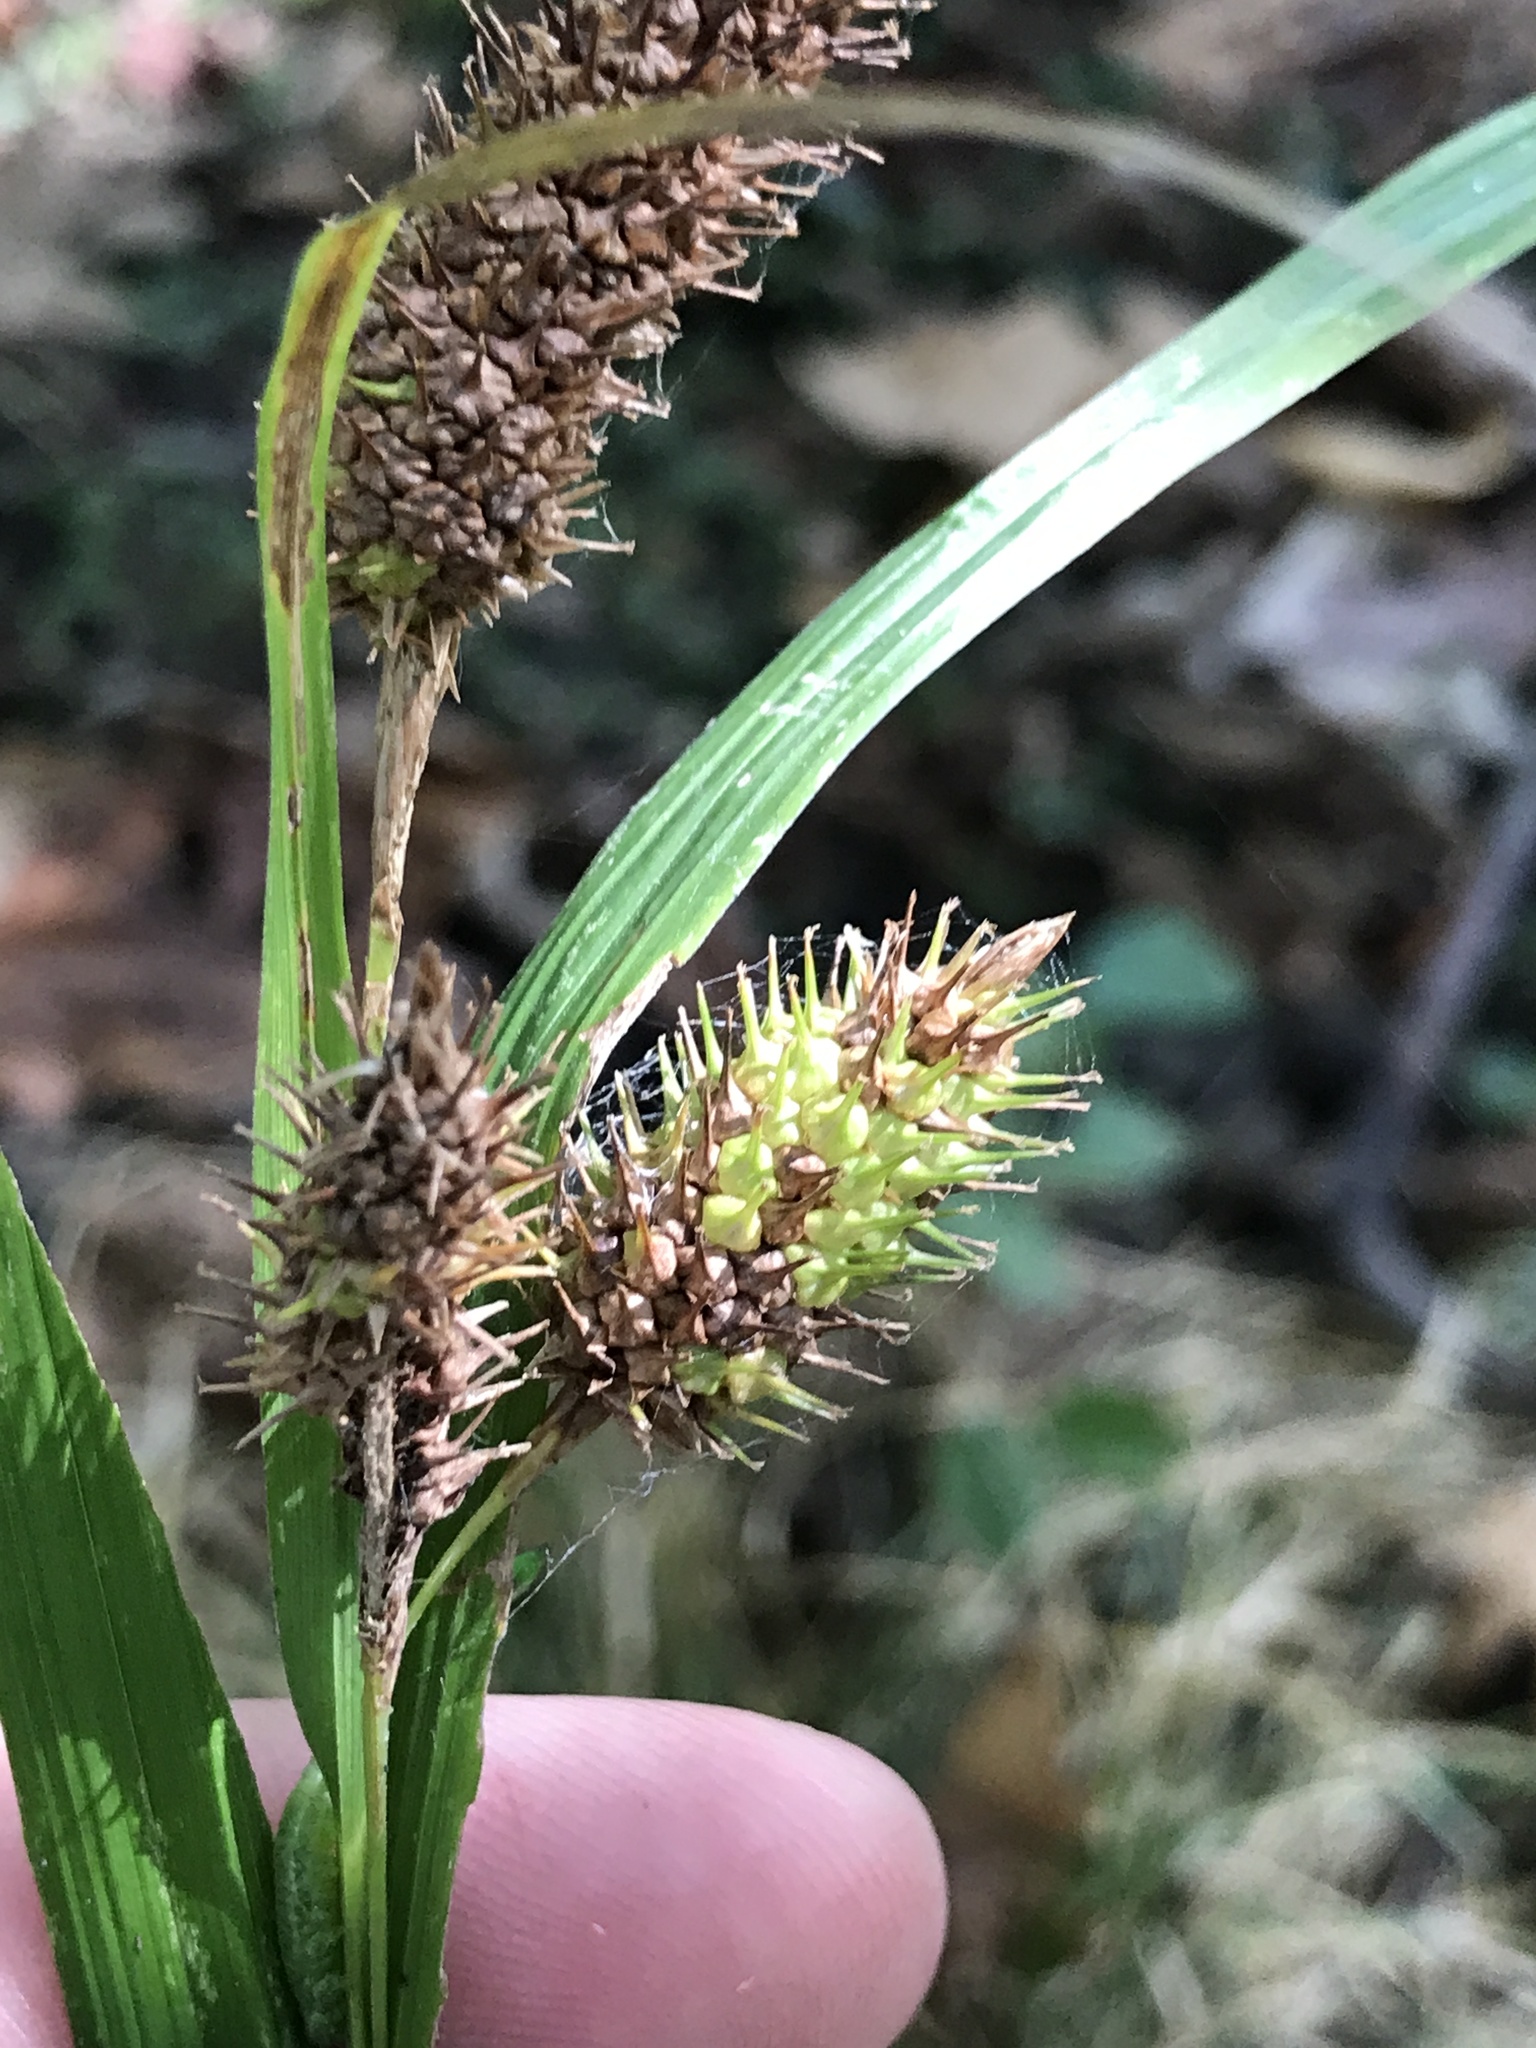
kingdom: Plantae
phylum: Tracheophyta
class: Liliopsida
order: Poales
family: Cyperaceae
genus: Carex
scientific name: Carex typhina
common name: Cattail sedge
